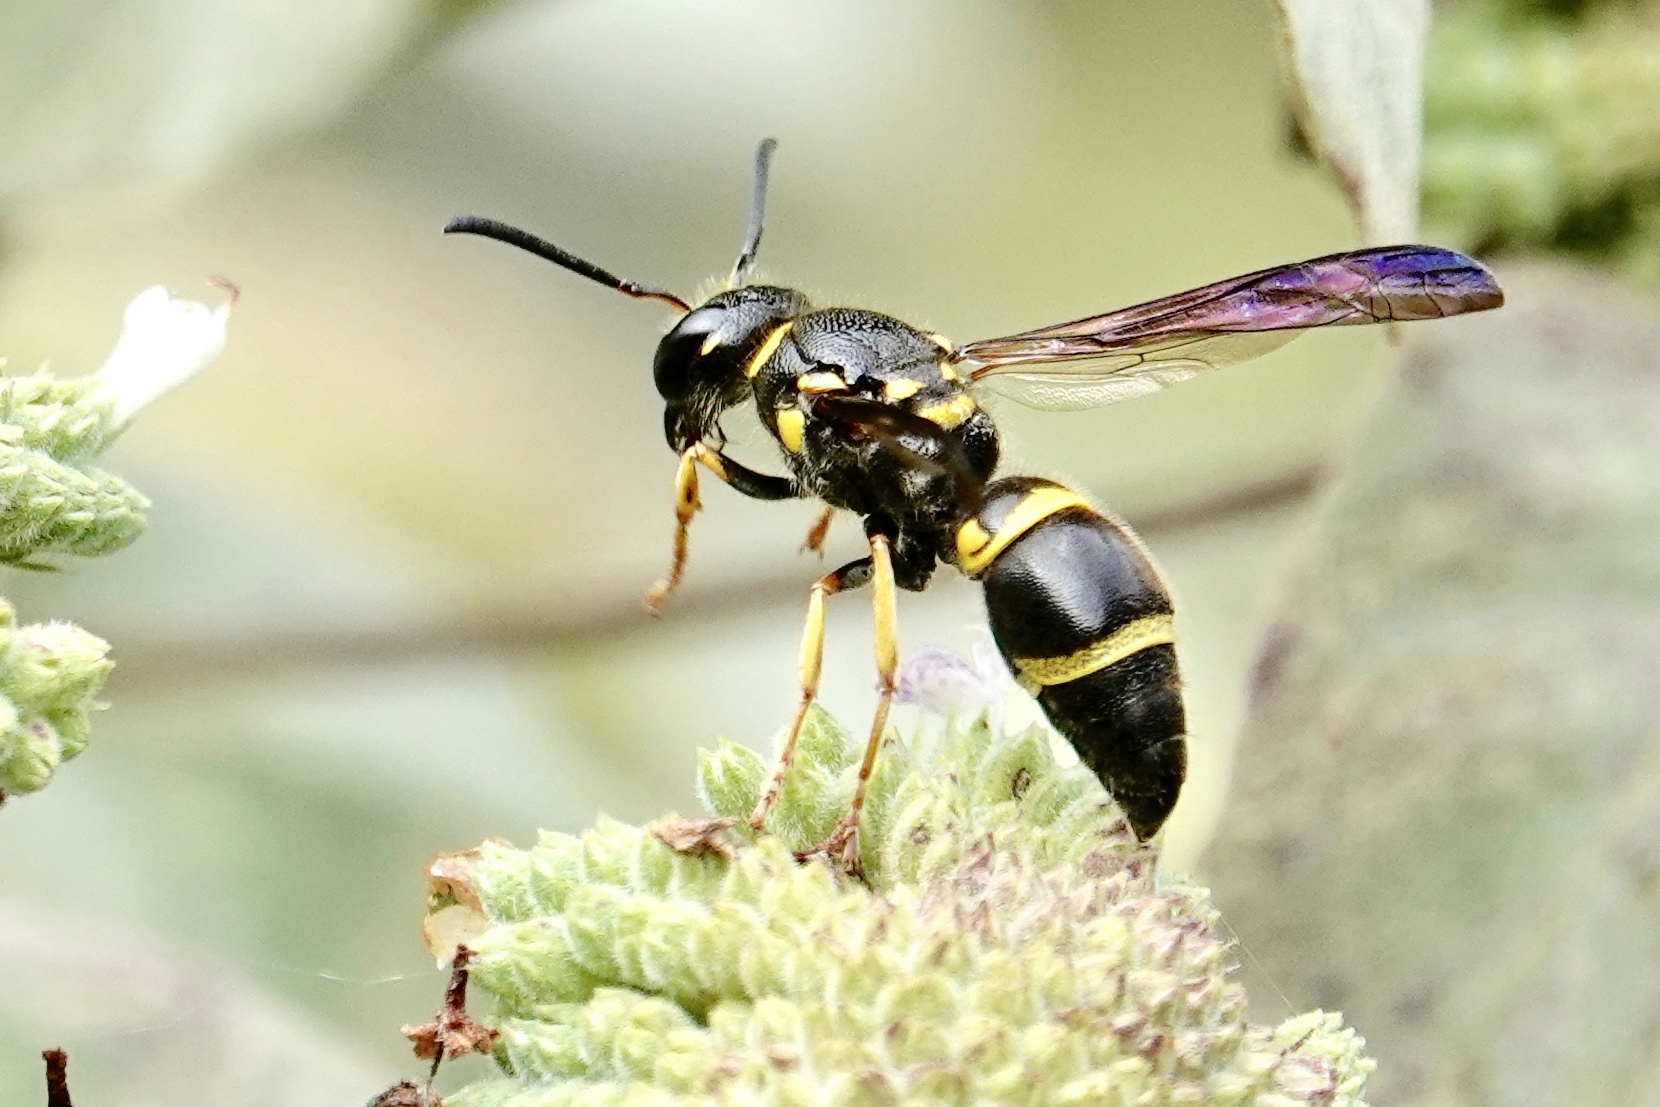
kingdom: Animalia
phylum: Arthropoda
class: Insecta
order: Hymenoptera
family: Vespidae
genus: Ancistrocerus
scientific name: Ancistrocerus campestris
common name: Smiling mason wasp
